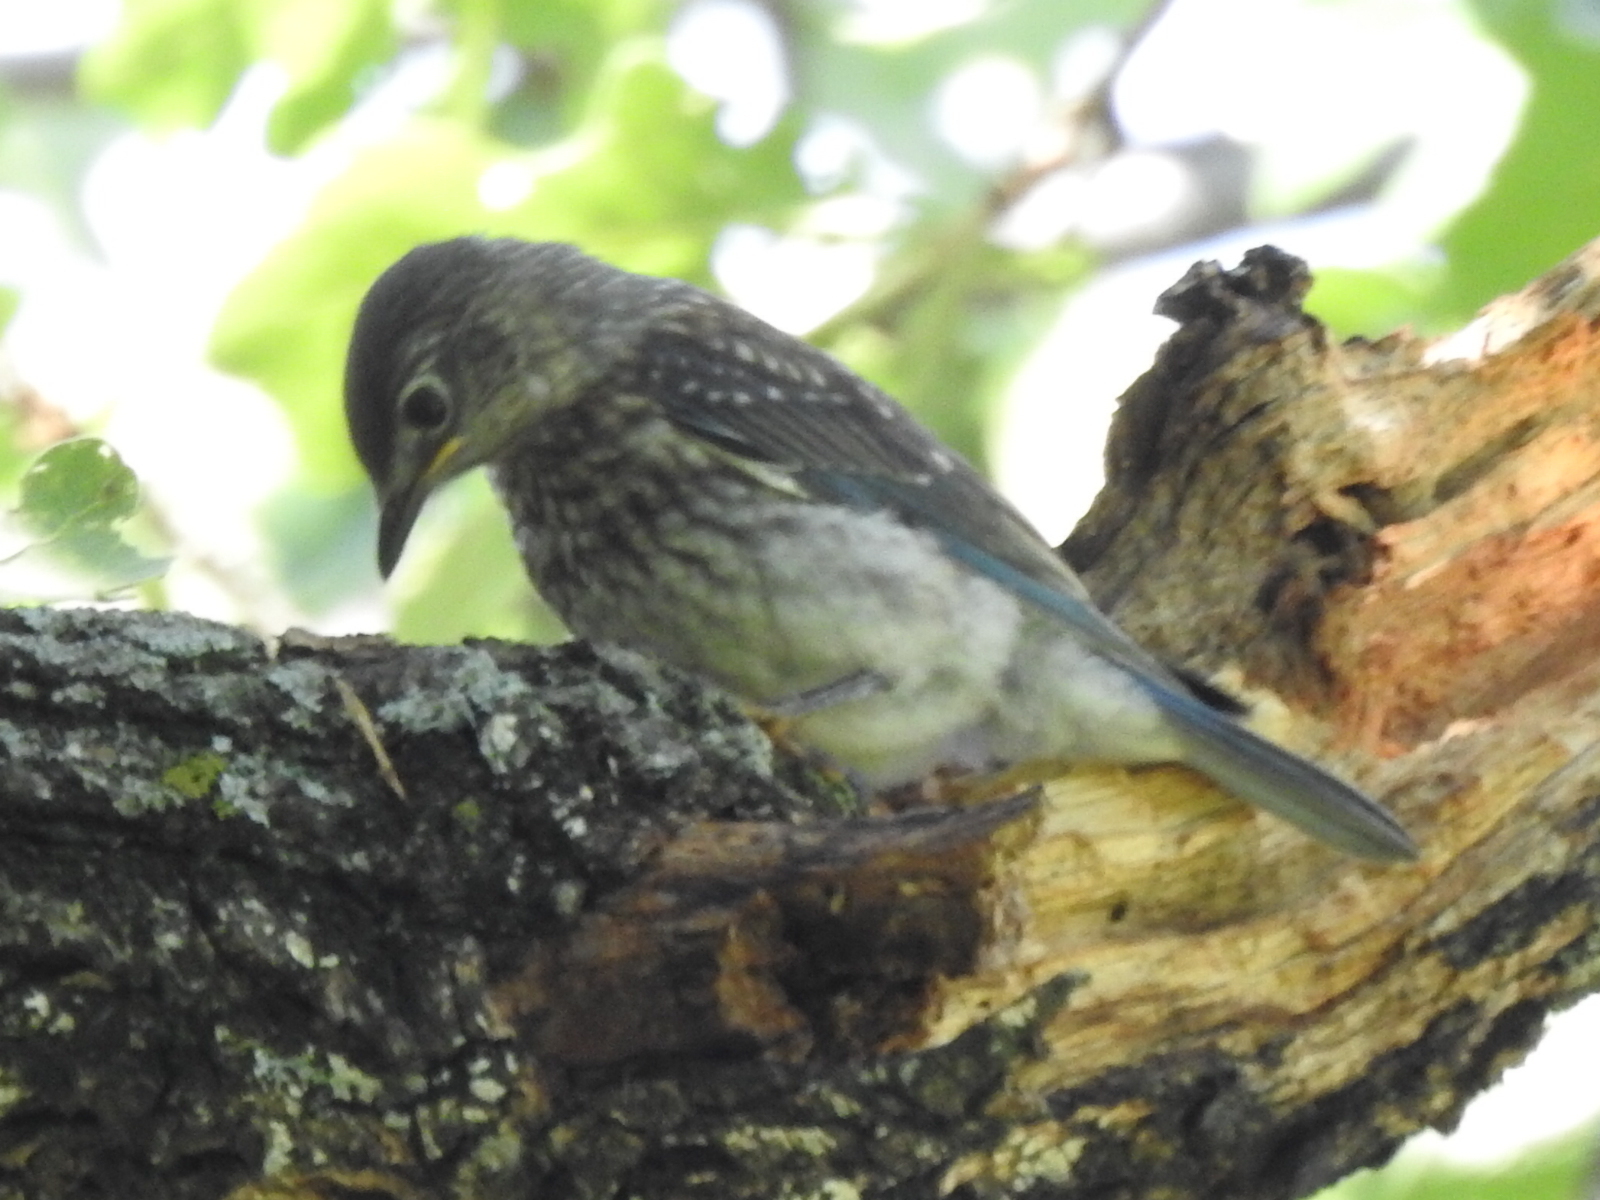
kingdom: Animalia
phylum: Chordata
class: Aves
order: Passeriformes
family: Turdidae
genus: Sialia
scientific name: Sialia sialis
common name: Eastern bluebird
